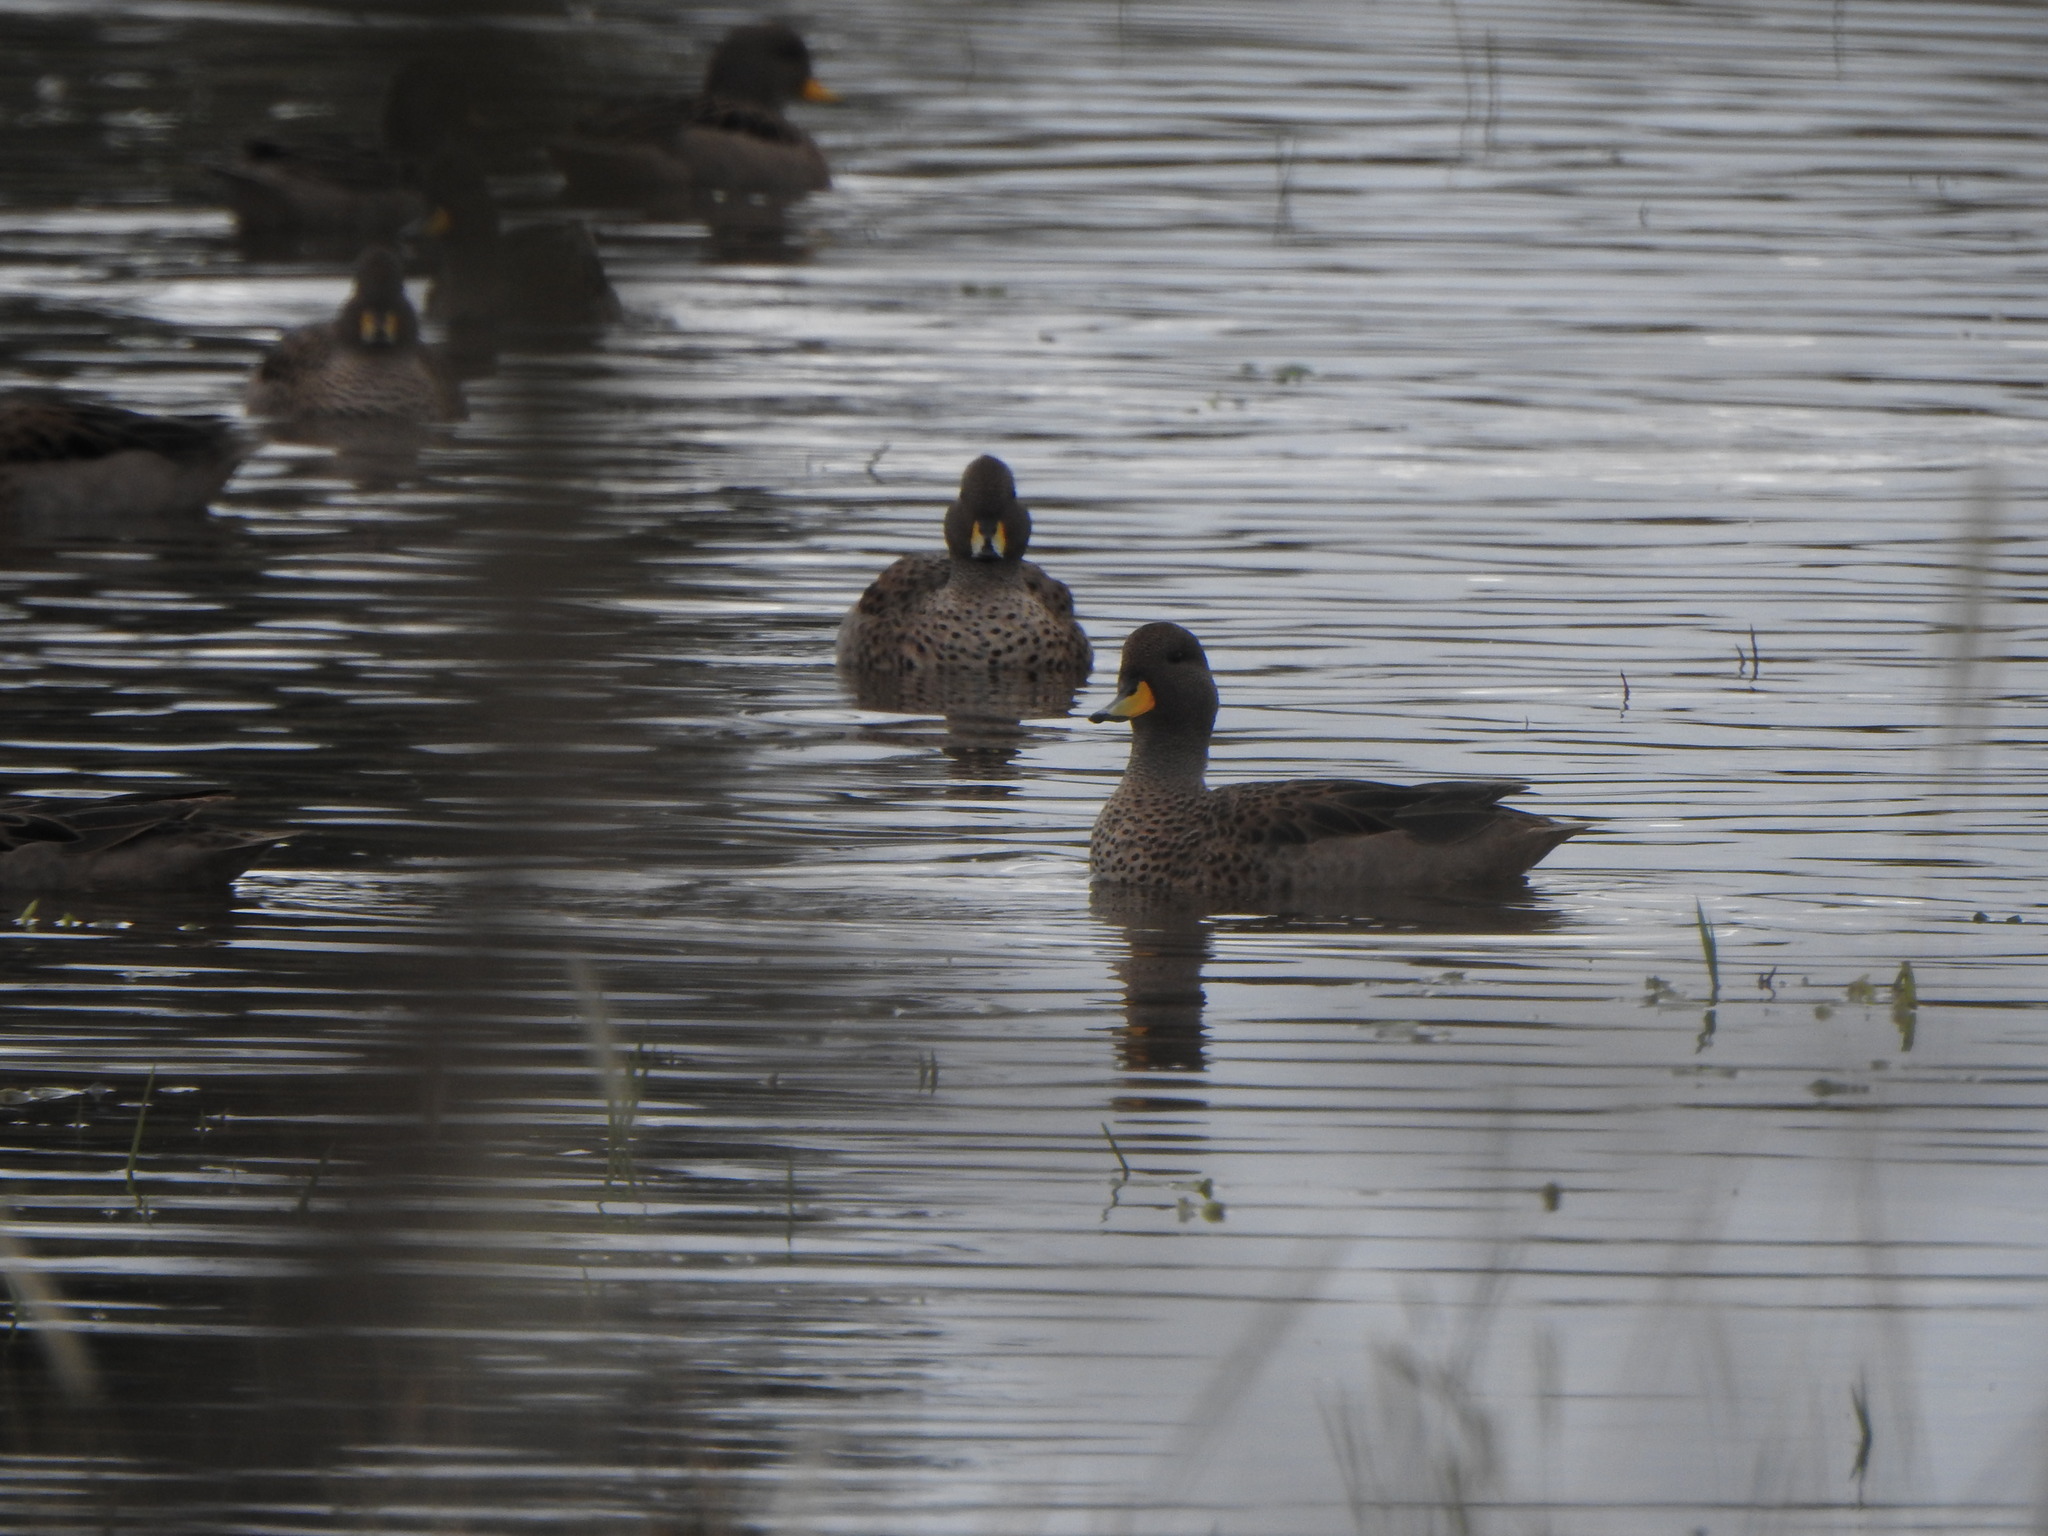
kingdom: Animalia
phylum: Chordata
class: Aves
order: Anseriformes
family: Anatidae
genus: Anas
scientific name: Anas flavirostris
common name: Yellow-billed teal
